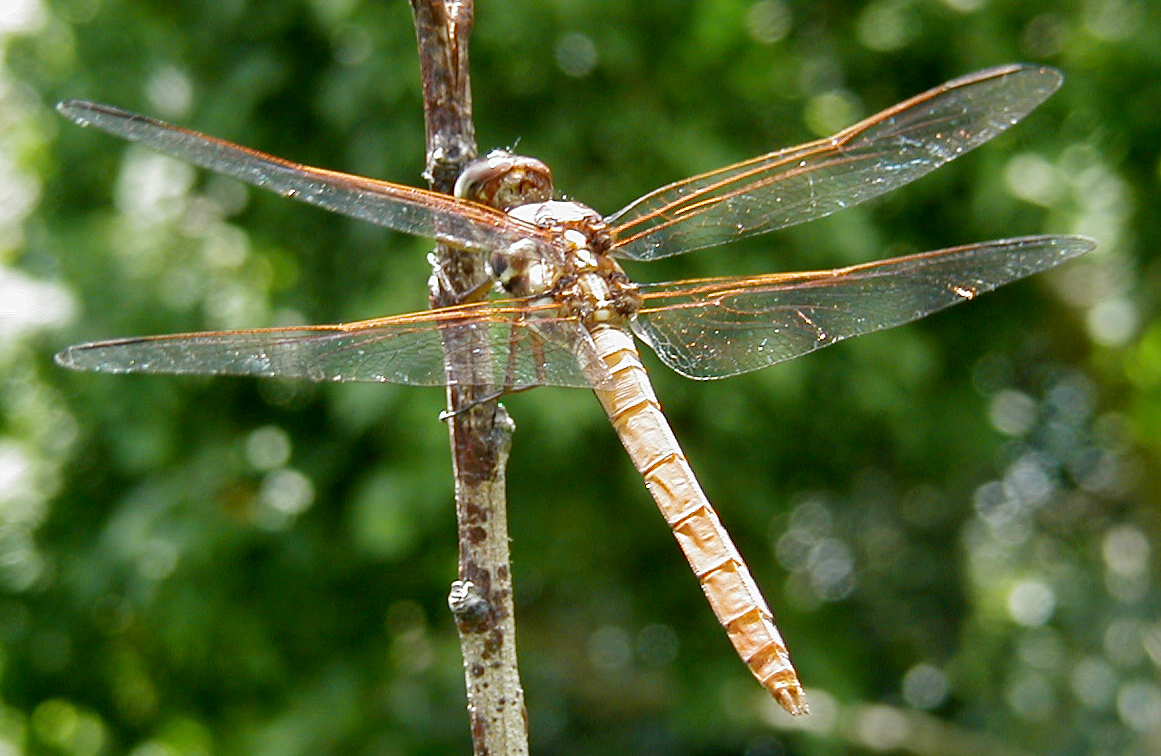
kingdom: Animalia
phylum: Arthropoda
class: Insecta
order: Odonata
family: Libellulidae
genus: Orthemis
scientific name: Orthemis ferruginea
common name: Roseate skimmer
